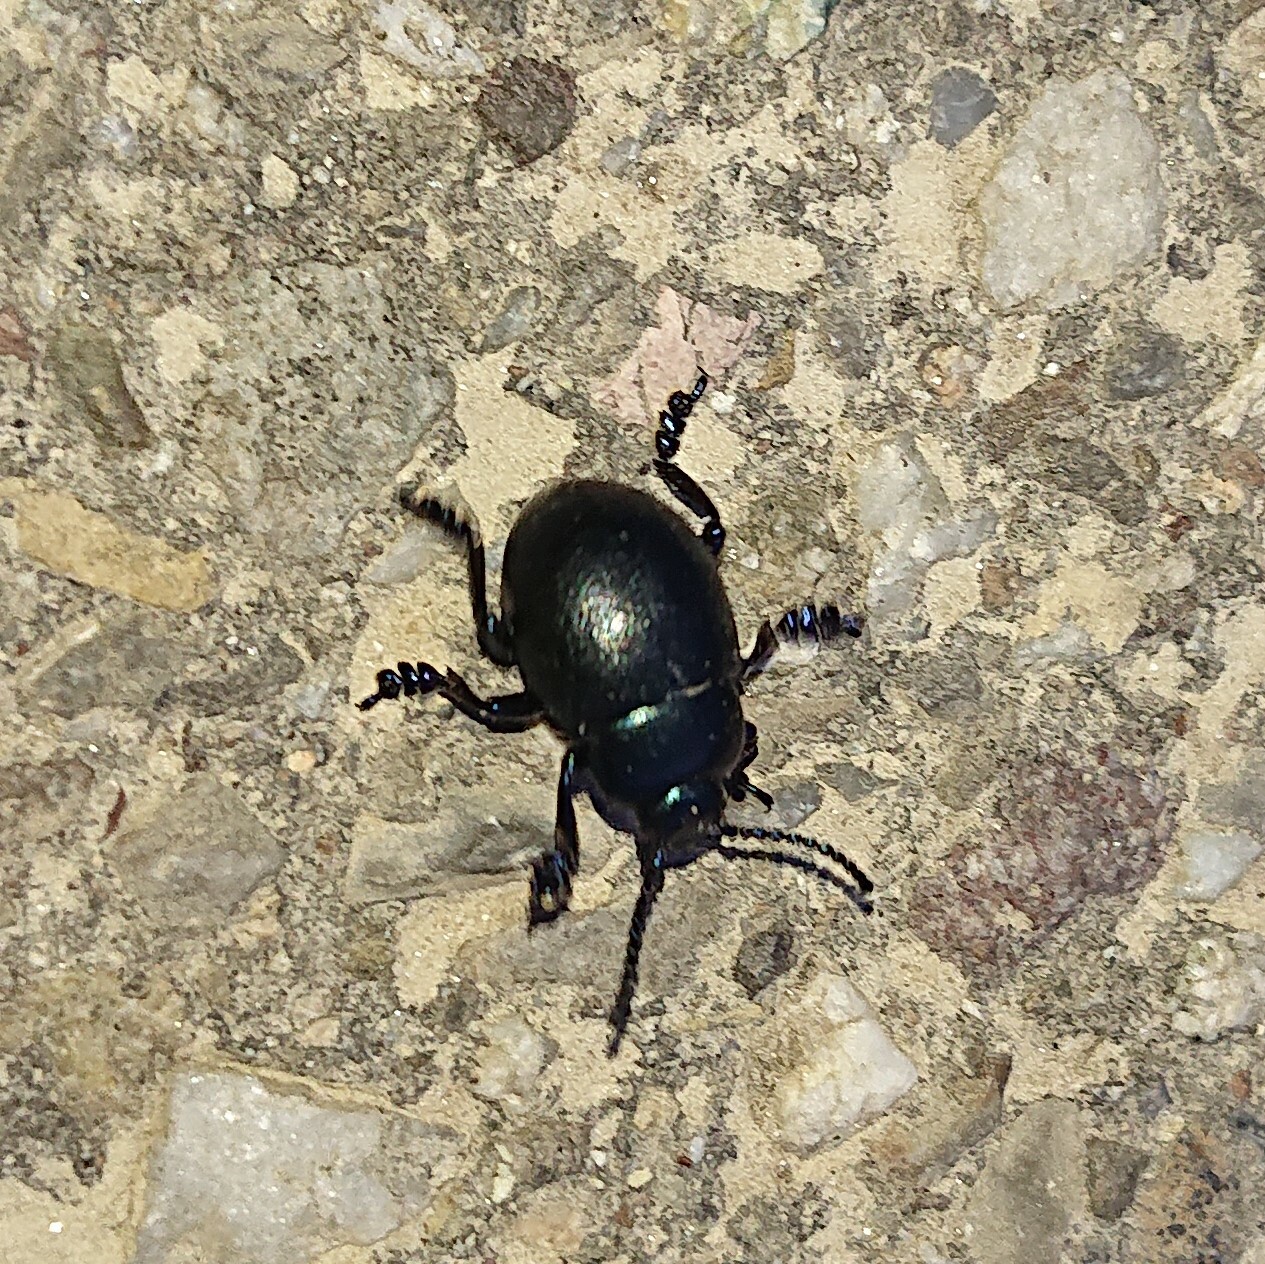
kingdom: Animalia
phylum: Arthropoda
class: Insecta
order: Coleoptera
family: Chrysomelidae
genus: Timarcha
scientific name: Timarcha goettingensis
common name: Small bloody-nosed beetle
